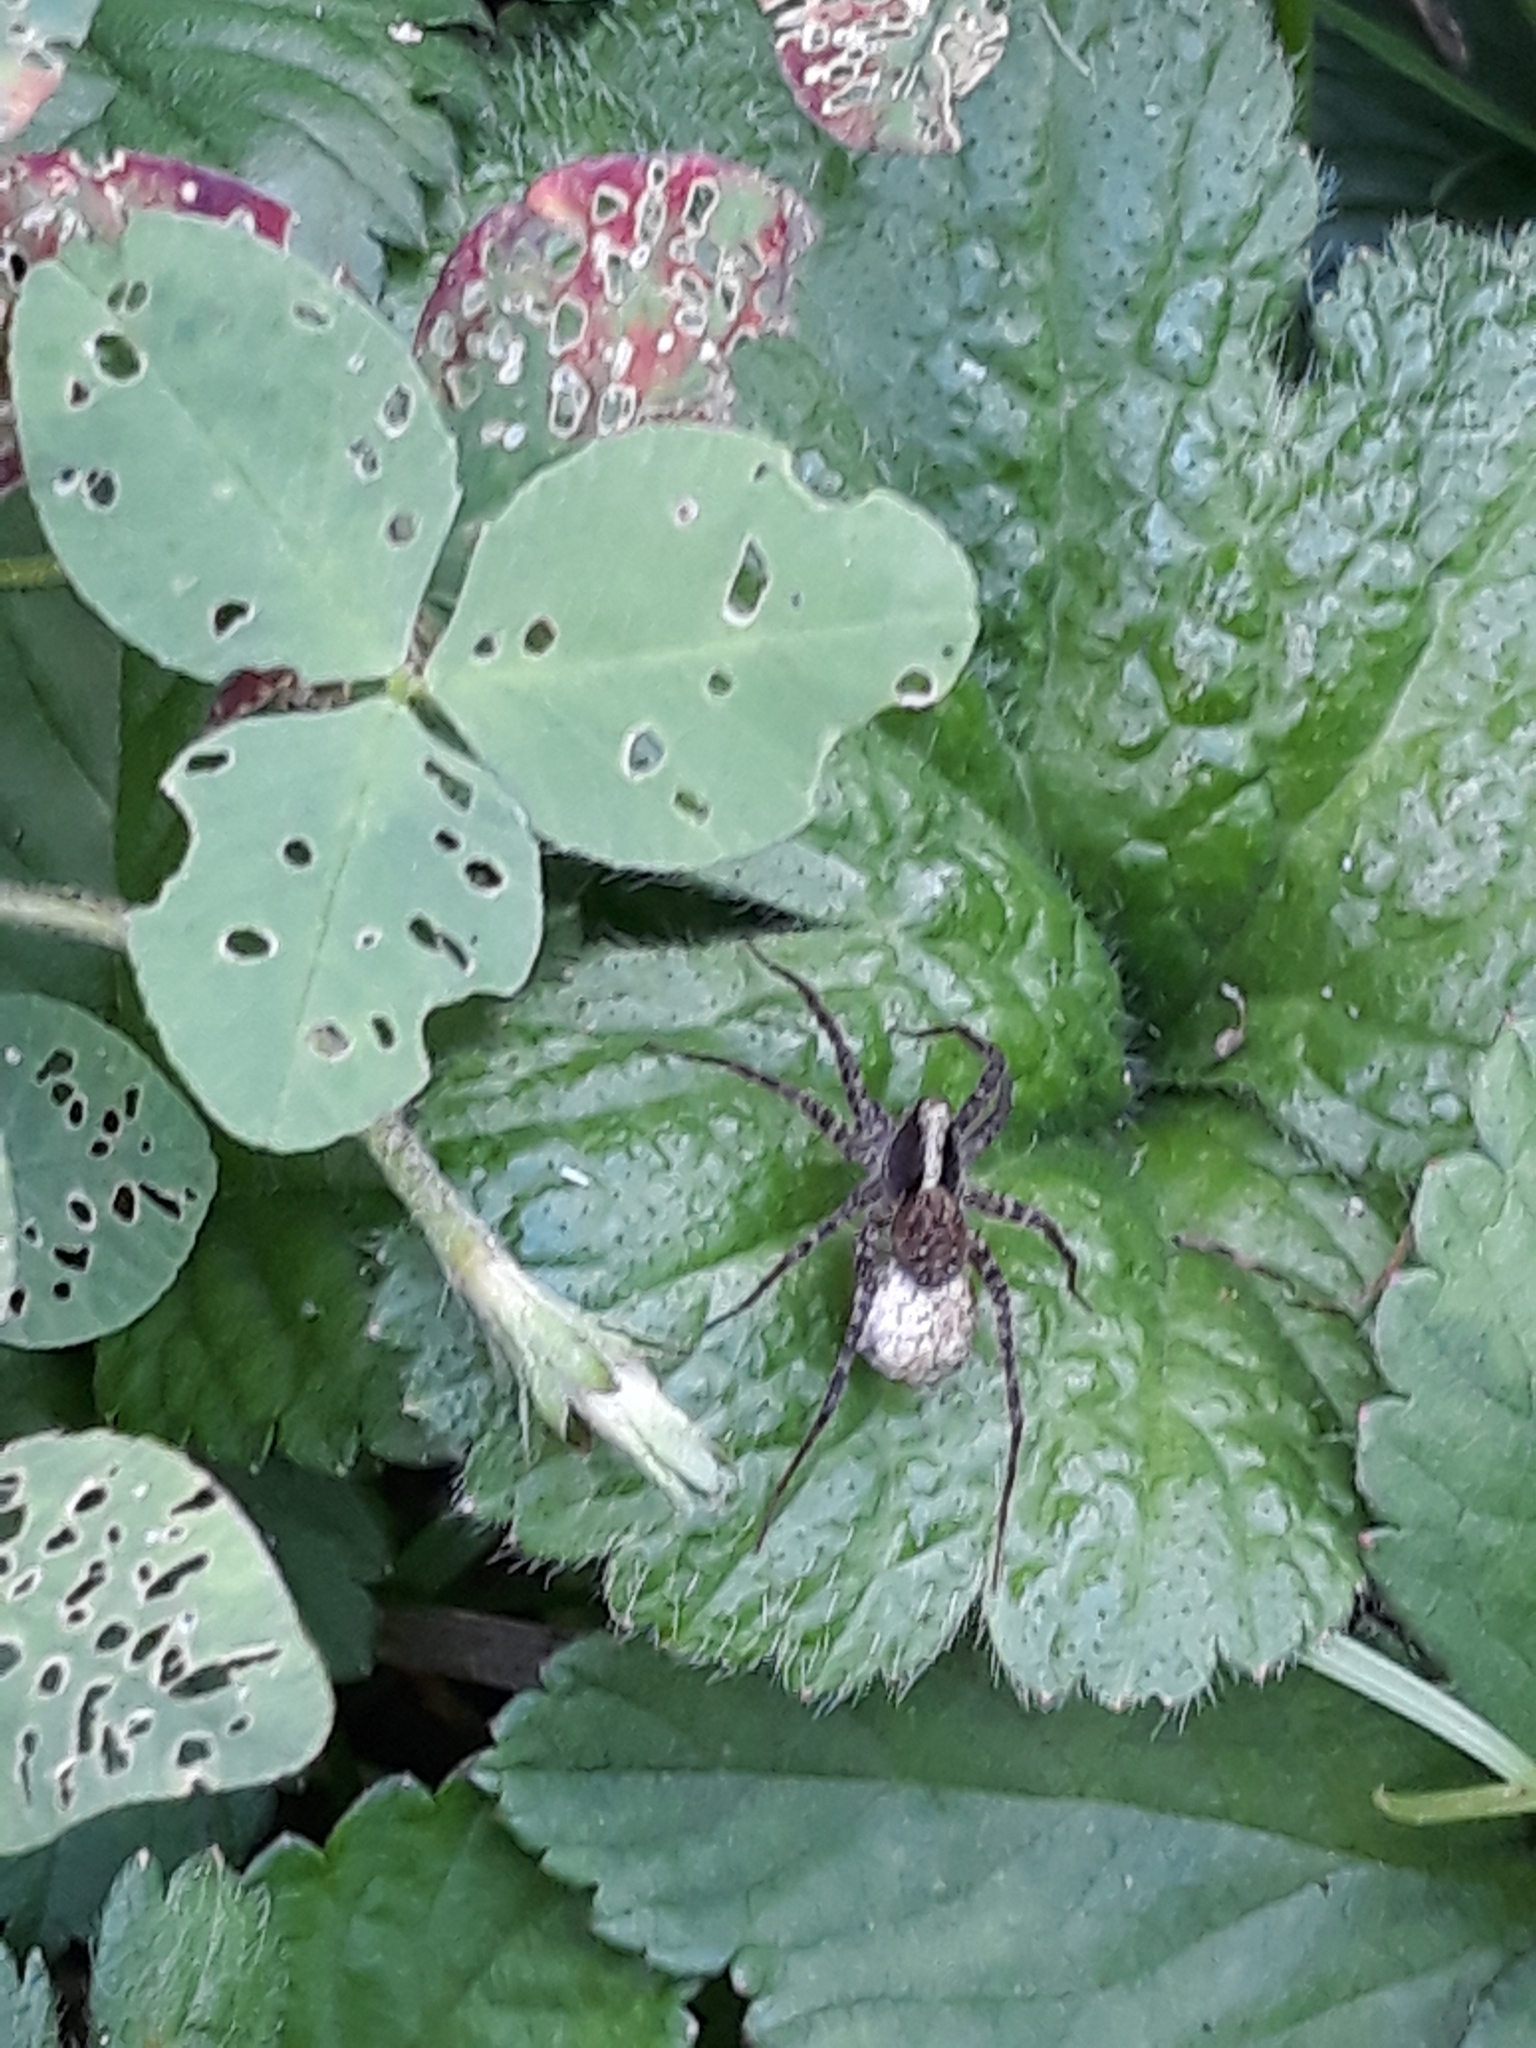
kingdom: Animalia
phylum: Arthropoda
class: Arachnida
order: Araneae
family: Lycosidae
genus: Pardosa
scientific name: Pardosa
